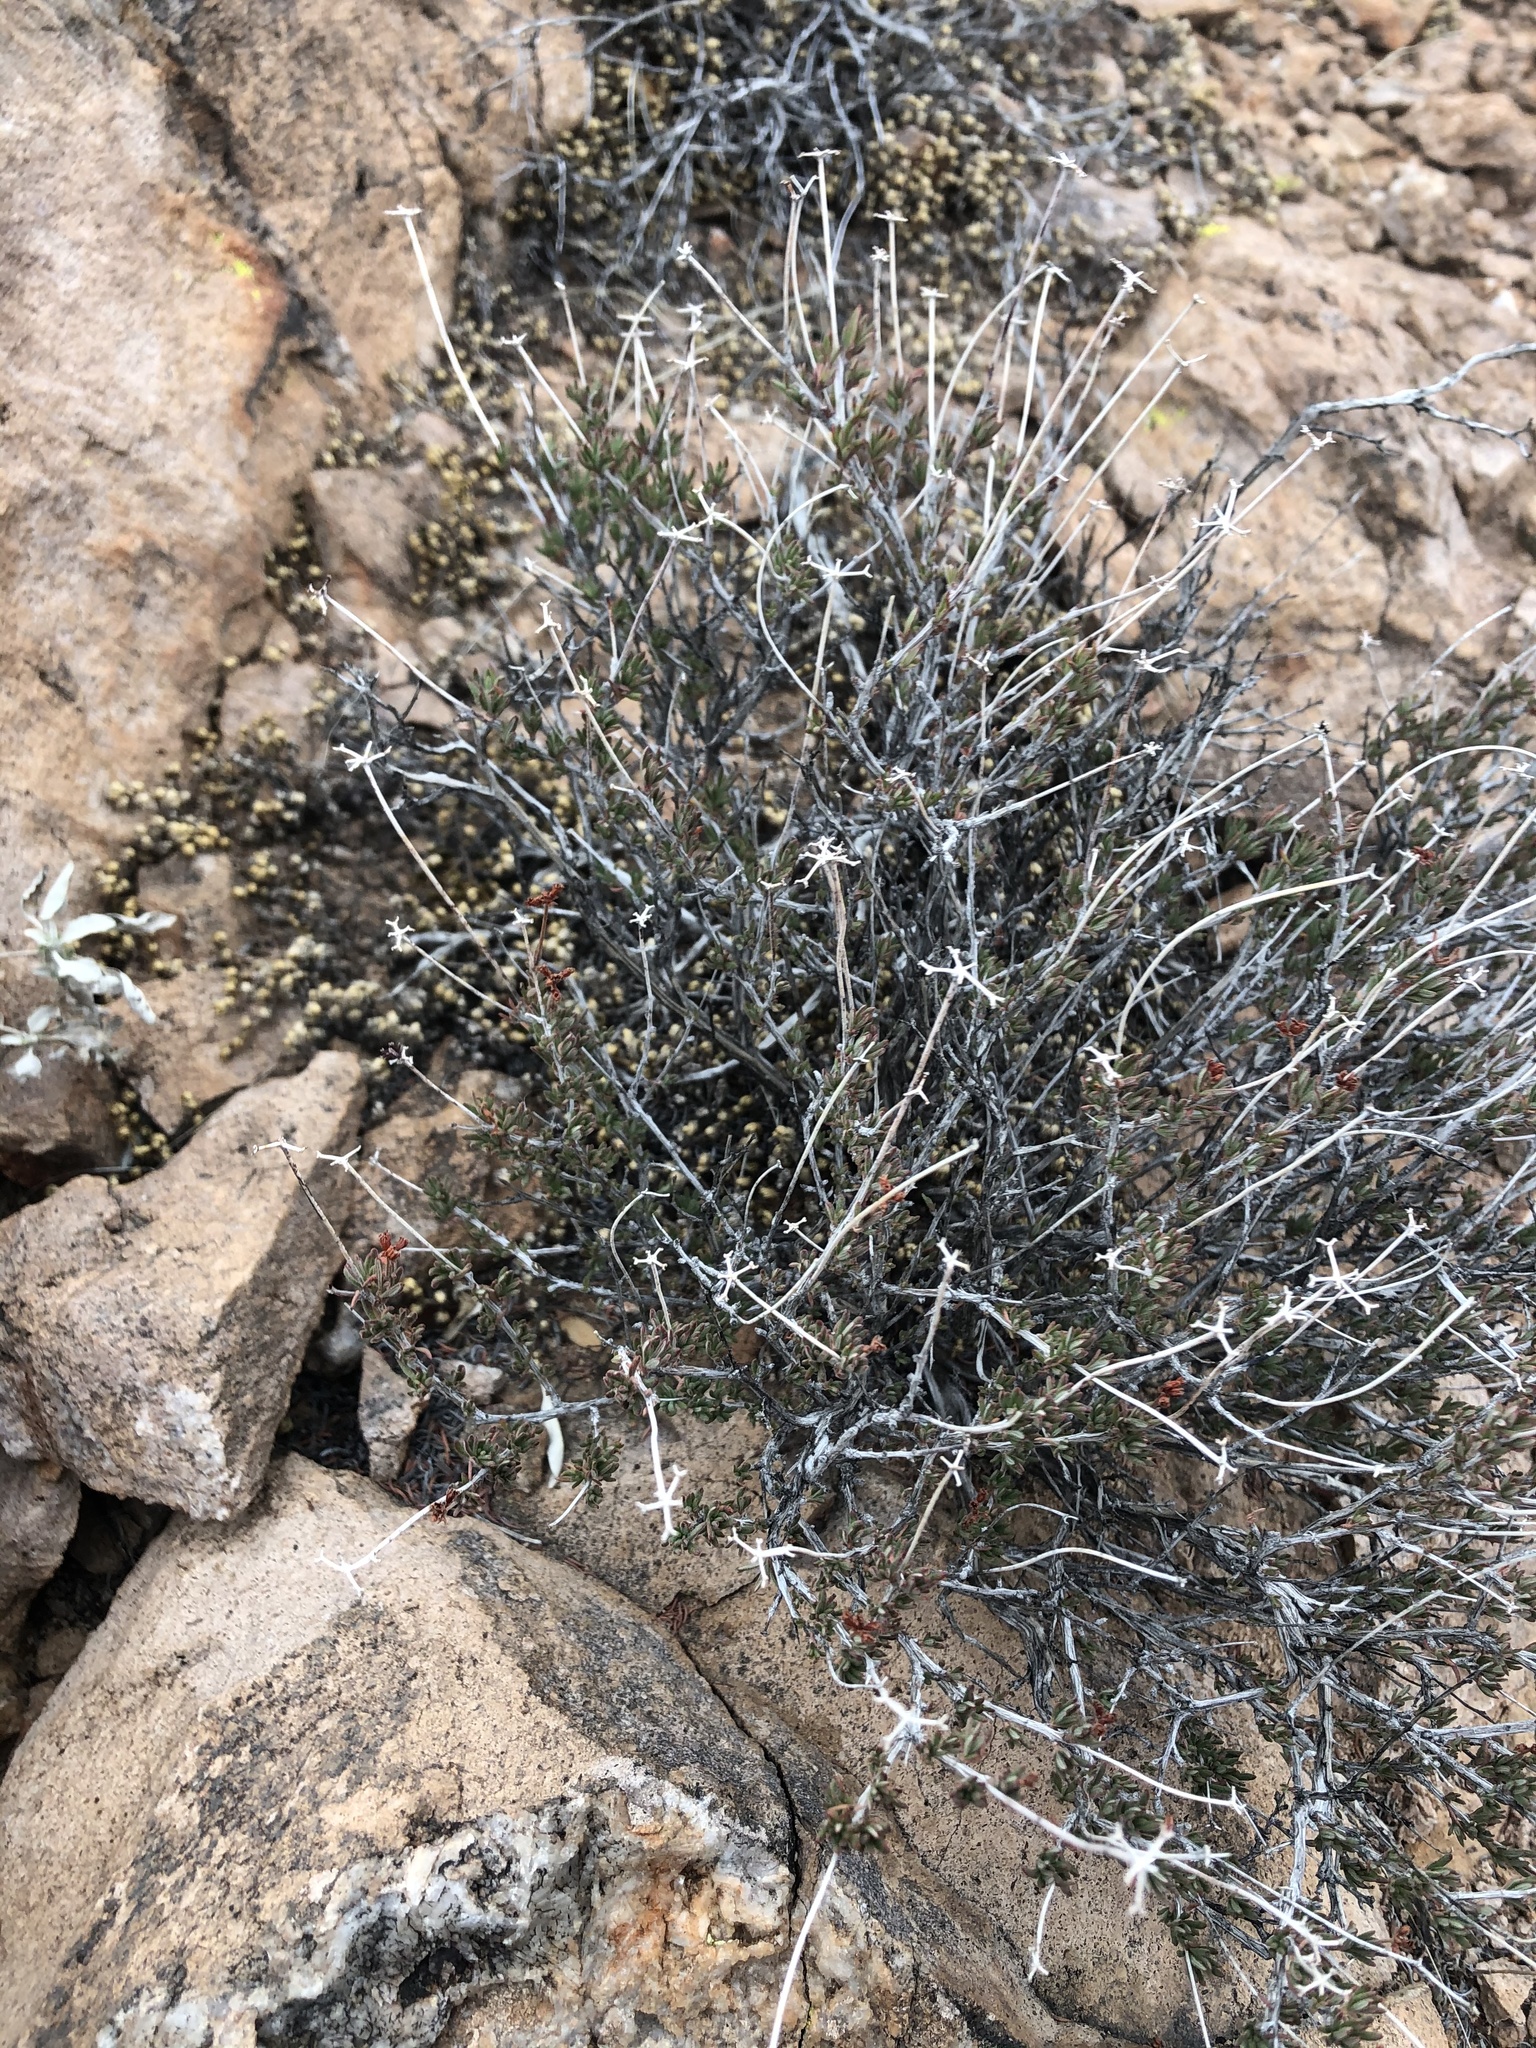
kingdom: Plantae
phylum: Tracheophyta
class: Magnoliopsida
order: Caryophyllales
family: Polygonaceae
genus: Eriogonum
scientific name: Eriogonum fasciculatum
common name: California wild buckwheat
